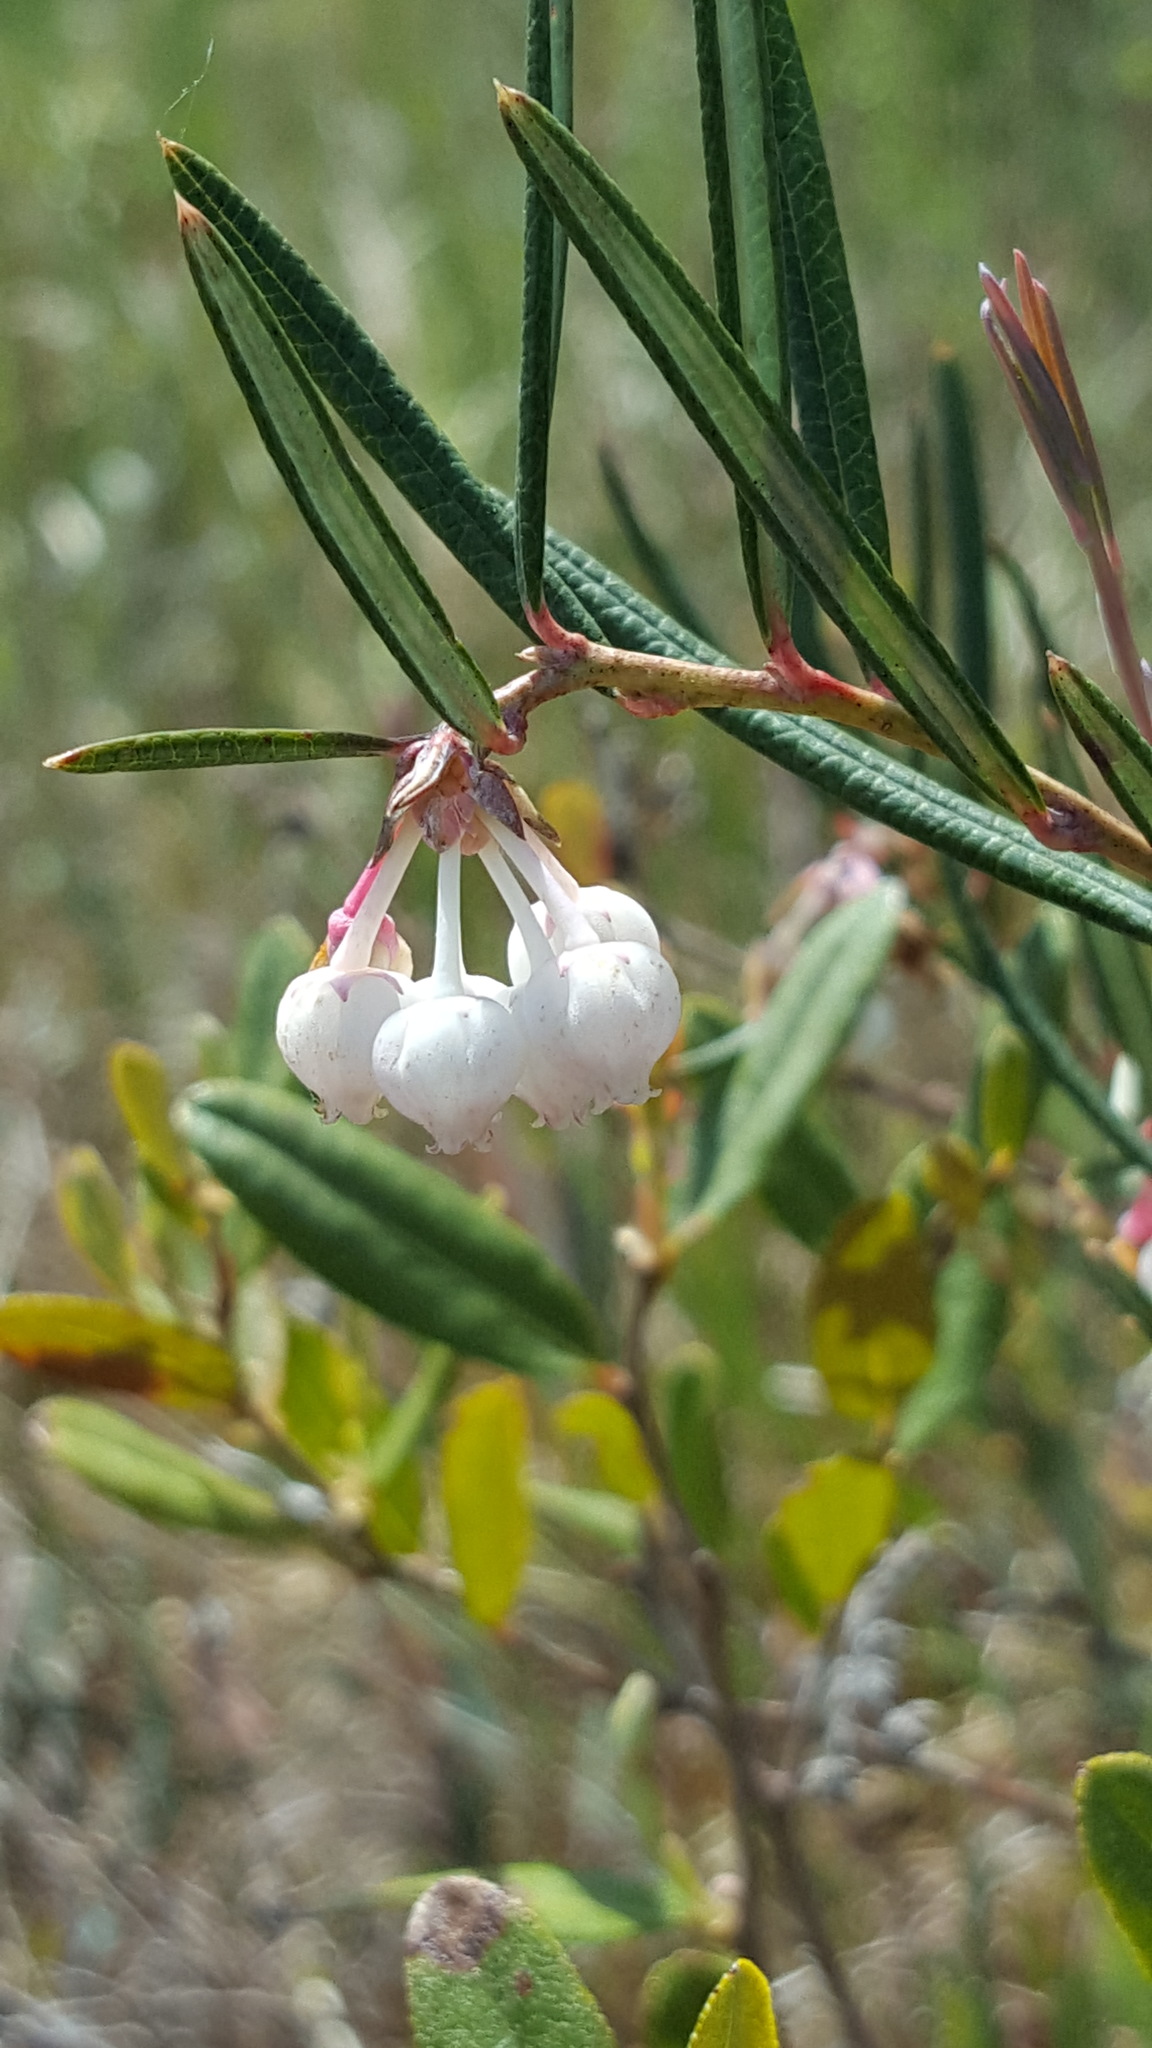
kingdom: Plantae
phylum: Tracheophyta
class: Magnoliopsida
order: Ericales
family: Ericaceae
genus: Andromeda
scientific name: Andromeda polifolia
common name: Bog-rosemary
